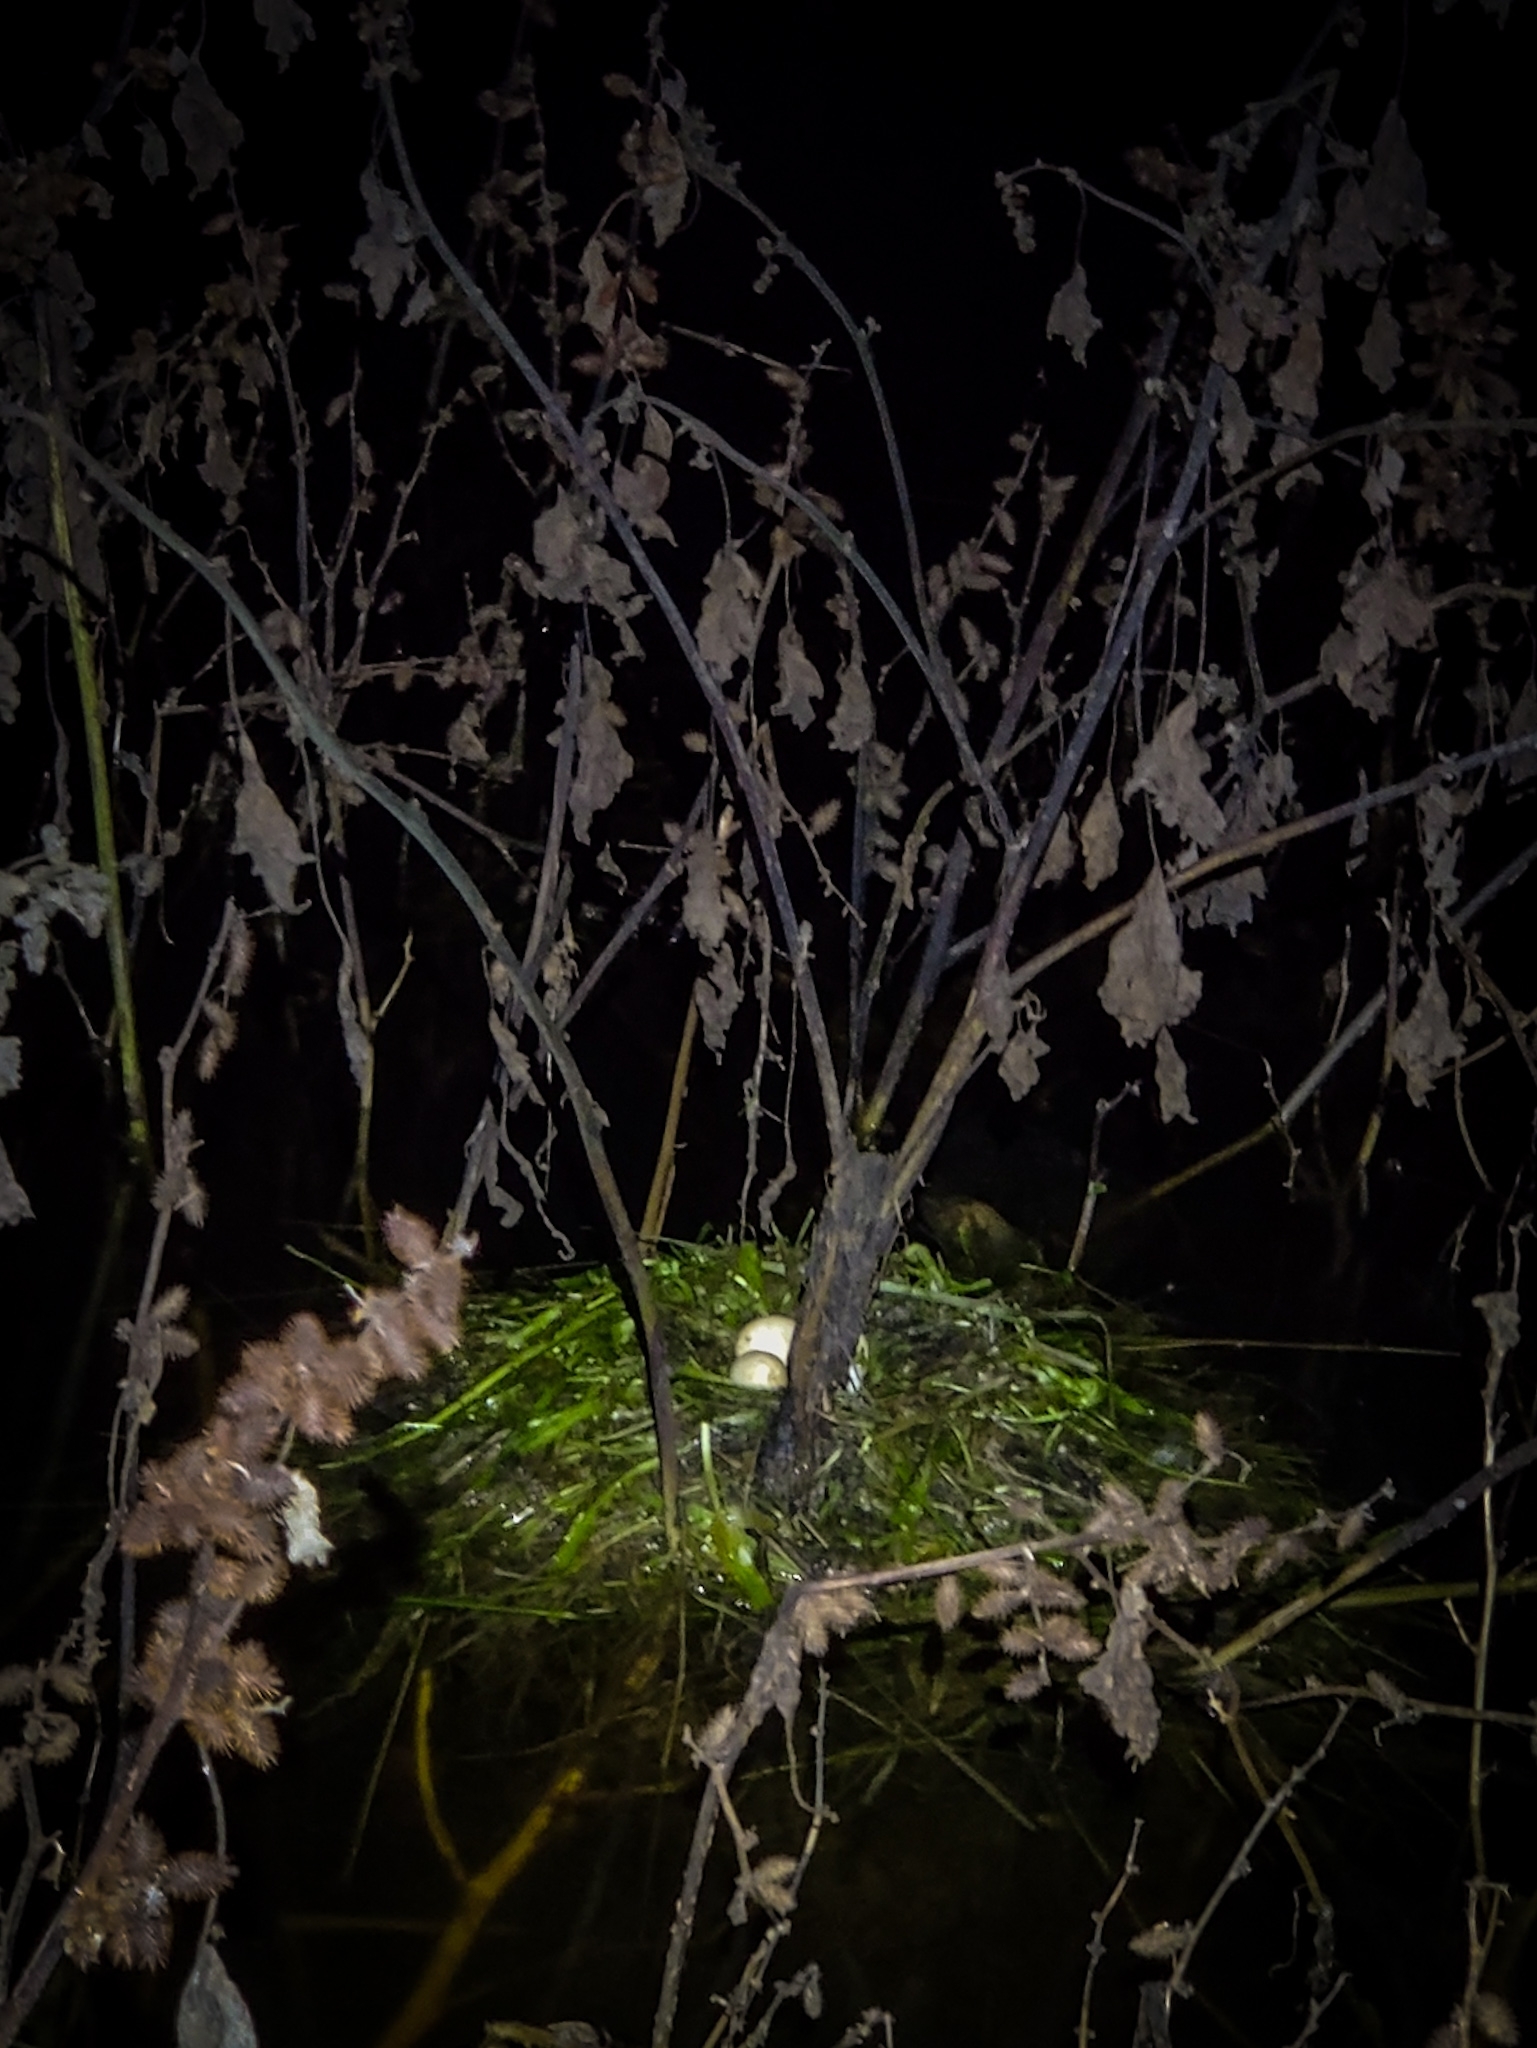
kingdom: Animalia
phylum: Chordata
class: Aves
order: Podicipediformes
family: Podicipedidae
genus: Tachybaptus
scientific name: Tachybaptus ruficollis
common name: Little grebe
